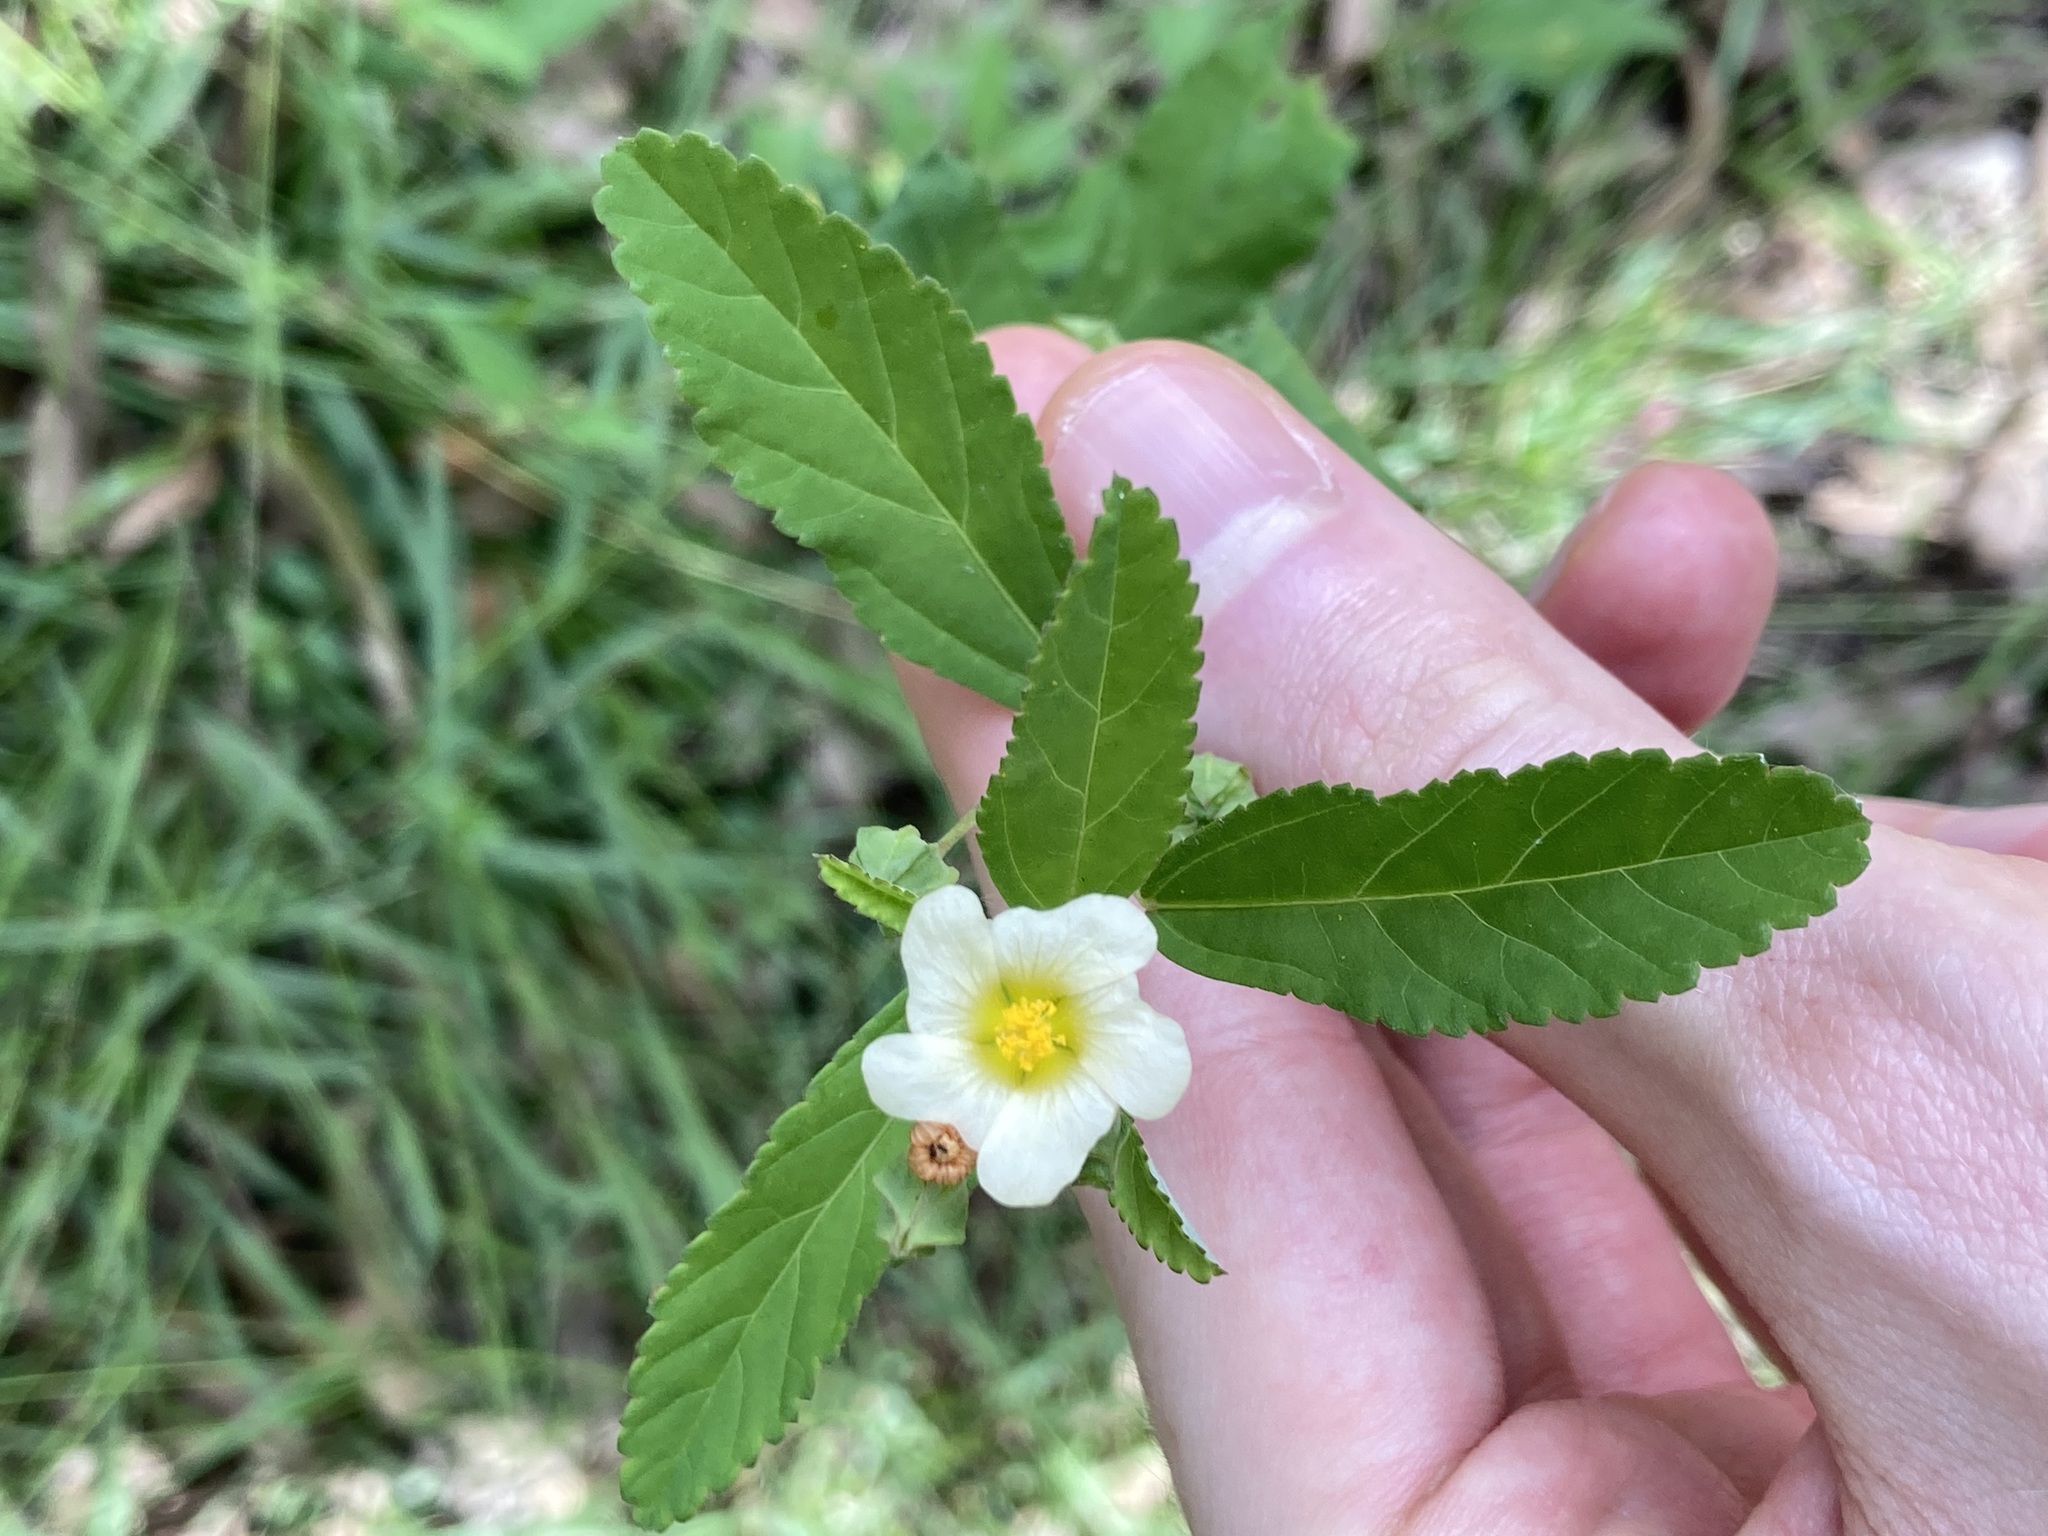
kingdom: Plantae
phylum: Tracheophyta
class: Magnoliopsida
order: Malvales
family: Malvaceae
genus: Sida
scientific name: Sida rhombifolia
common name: Queensland-hemp
